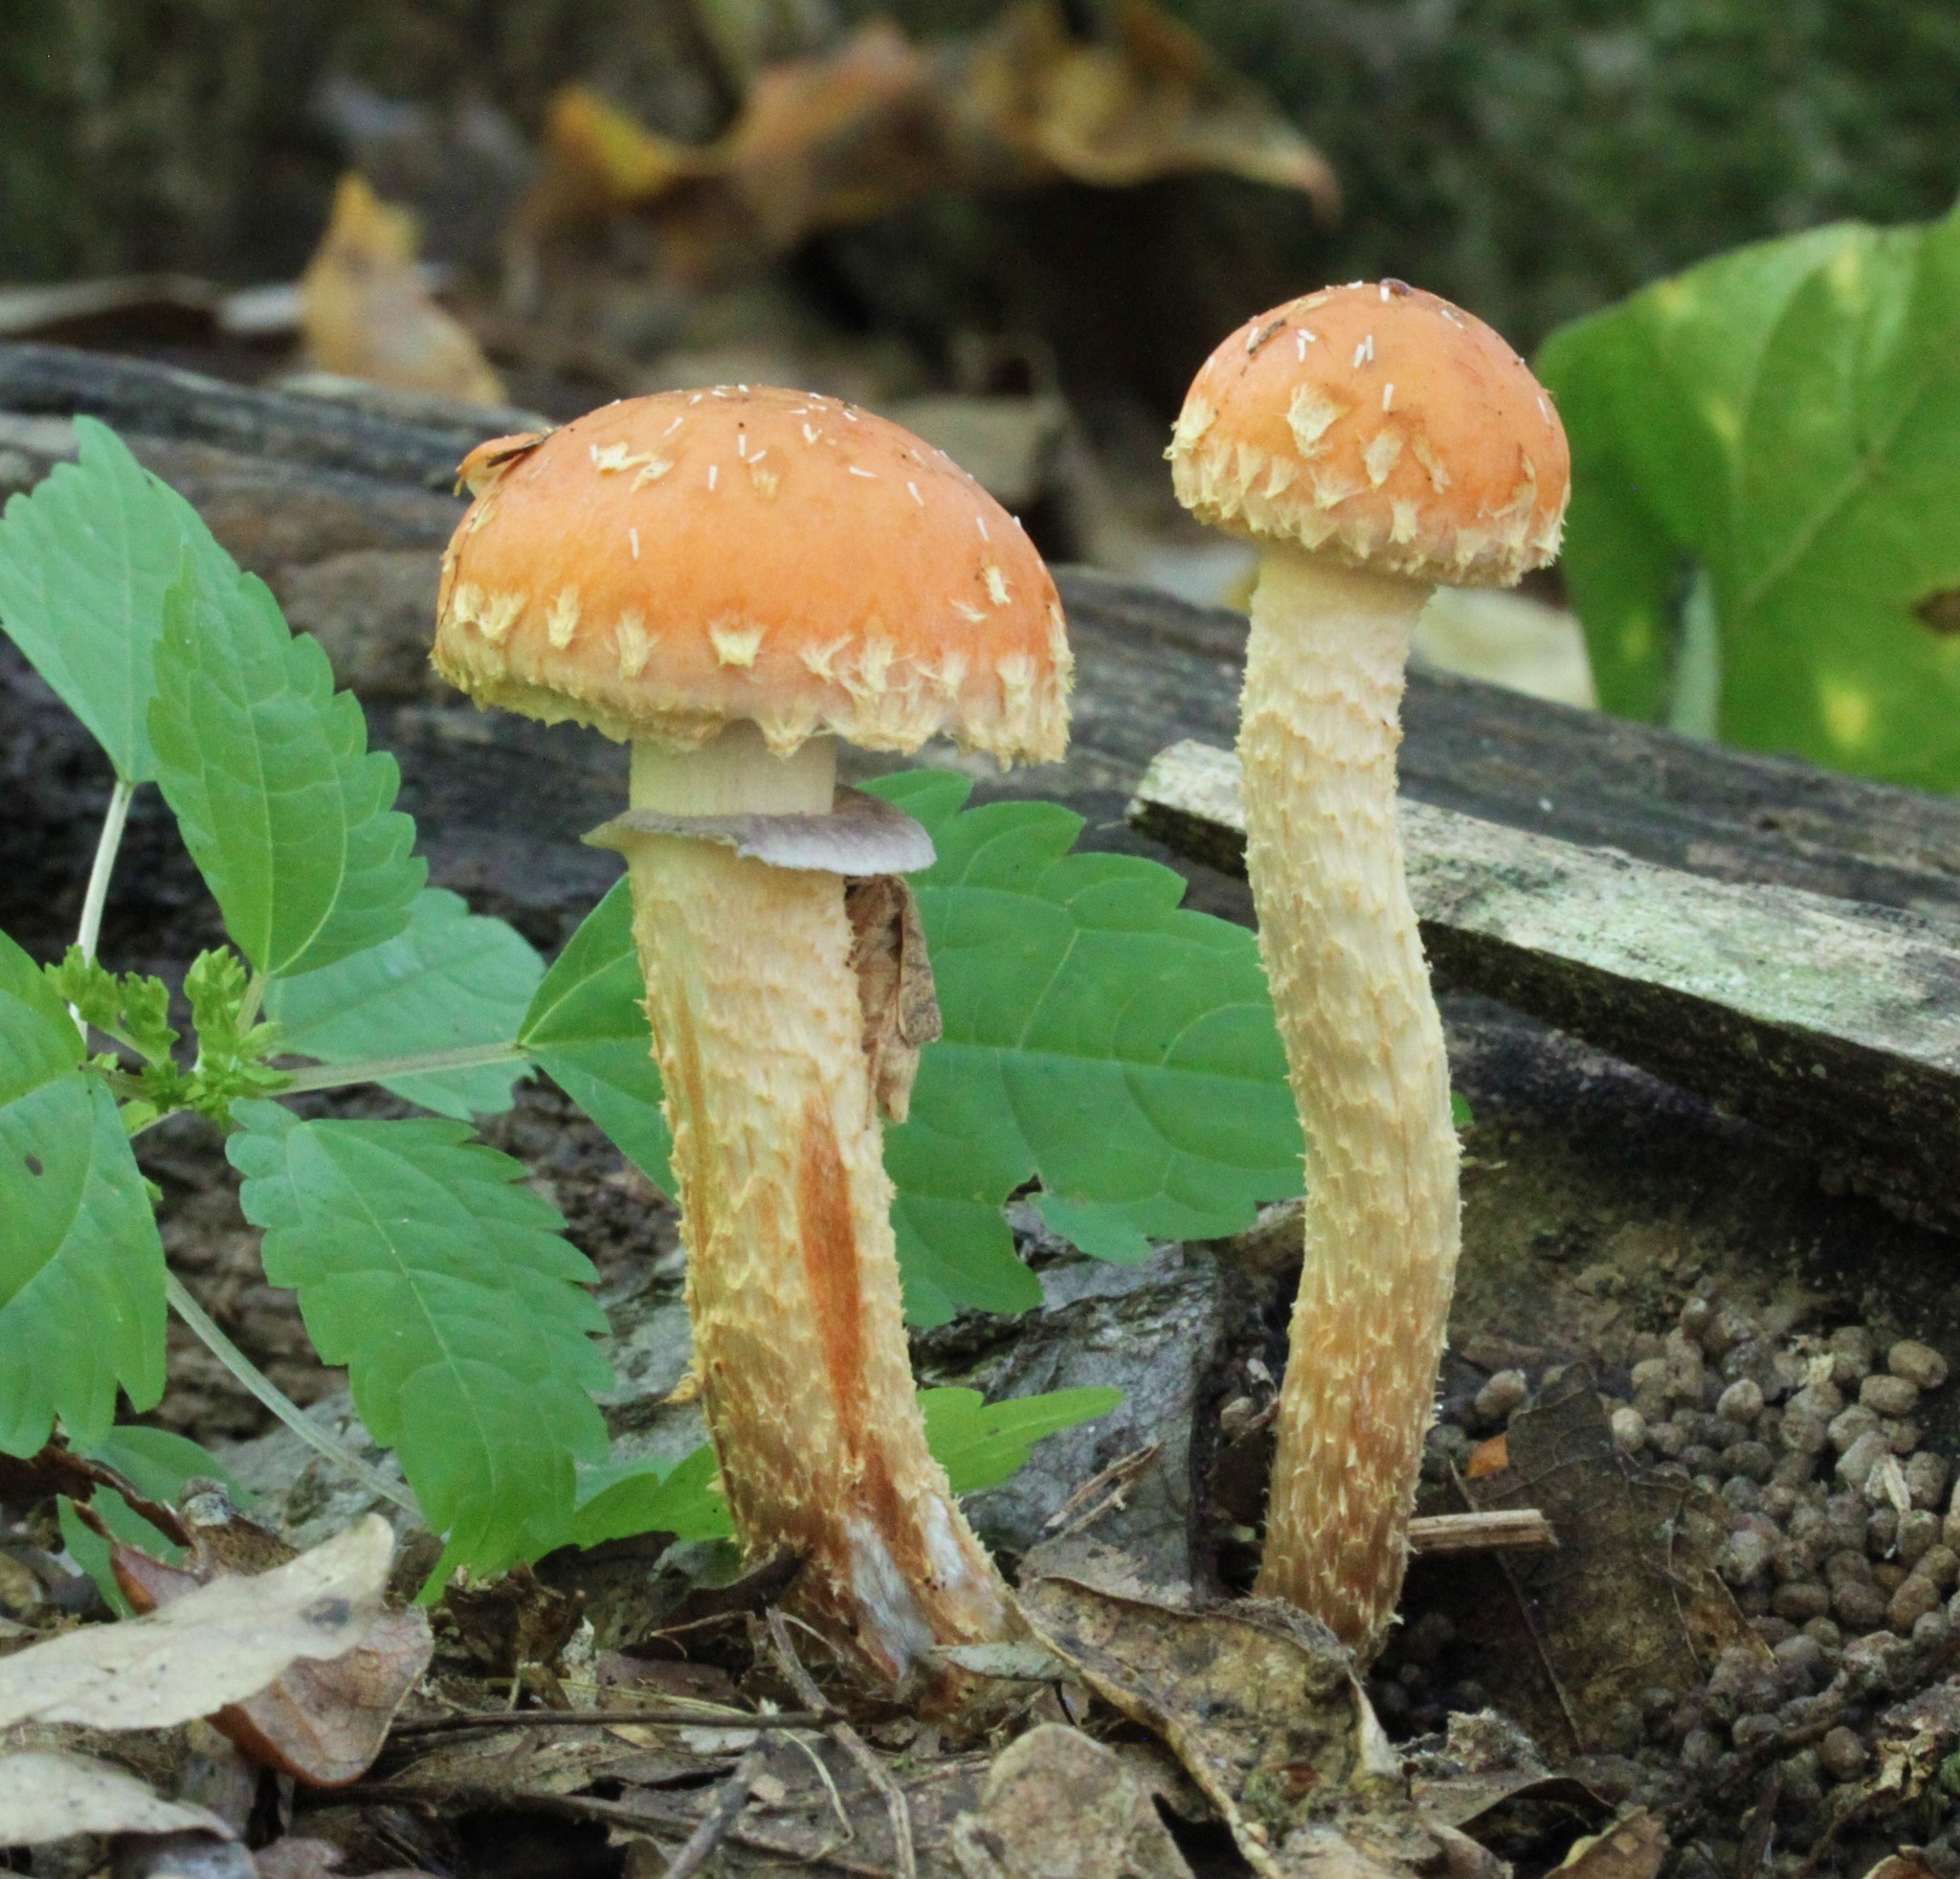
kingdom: Fungi
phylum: Basidiomycota
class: Agaricomycetes
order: Agaricales
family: Strophariaceae
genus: Leratiomyces
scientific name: Leratiomyces squamosus
